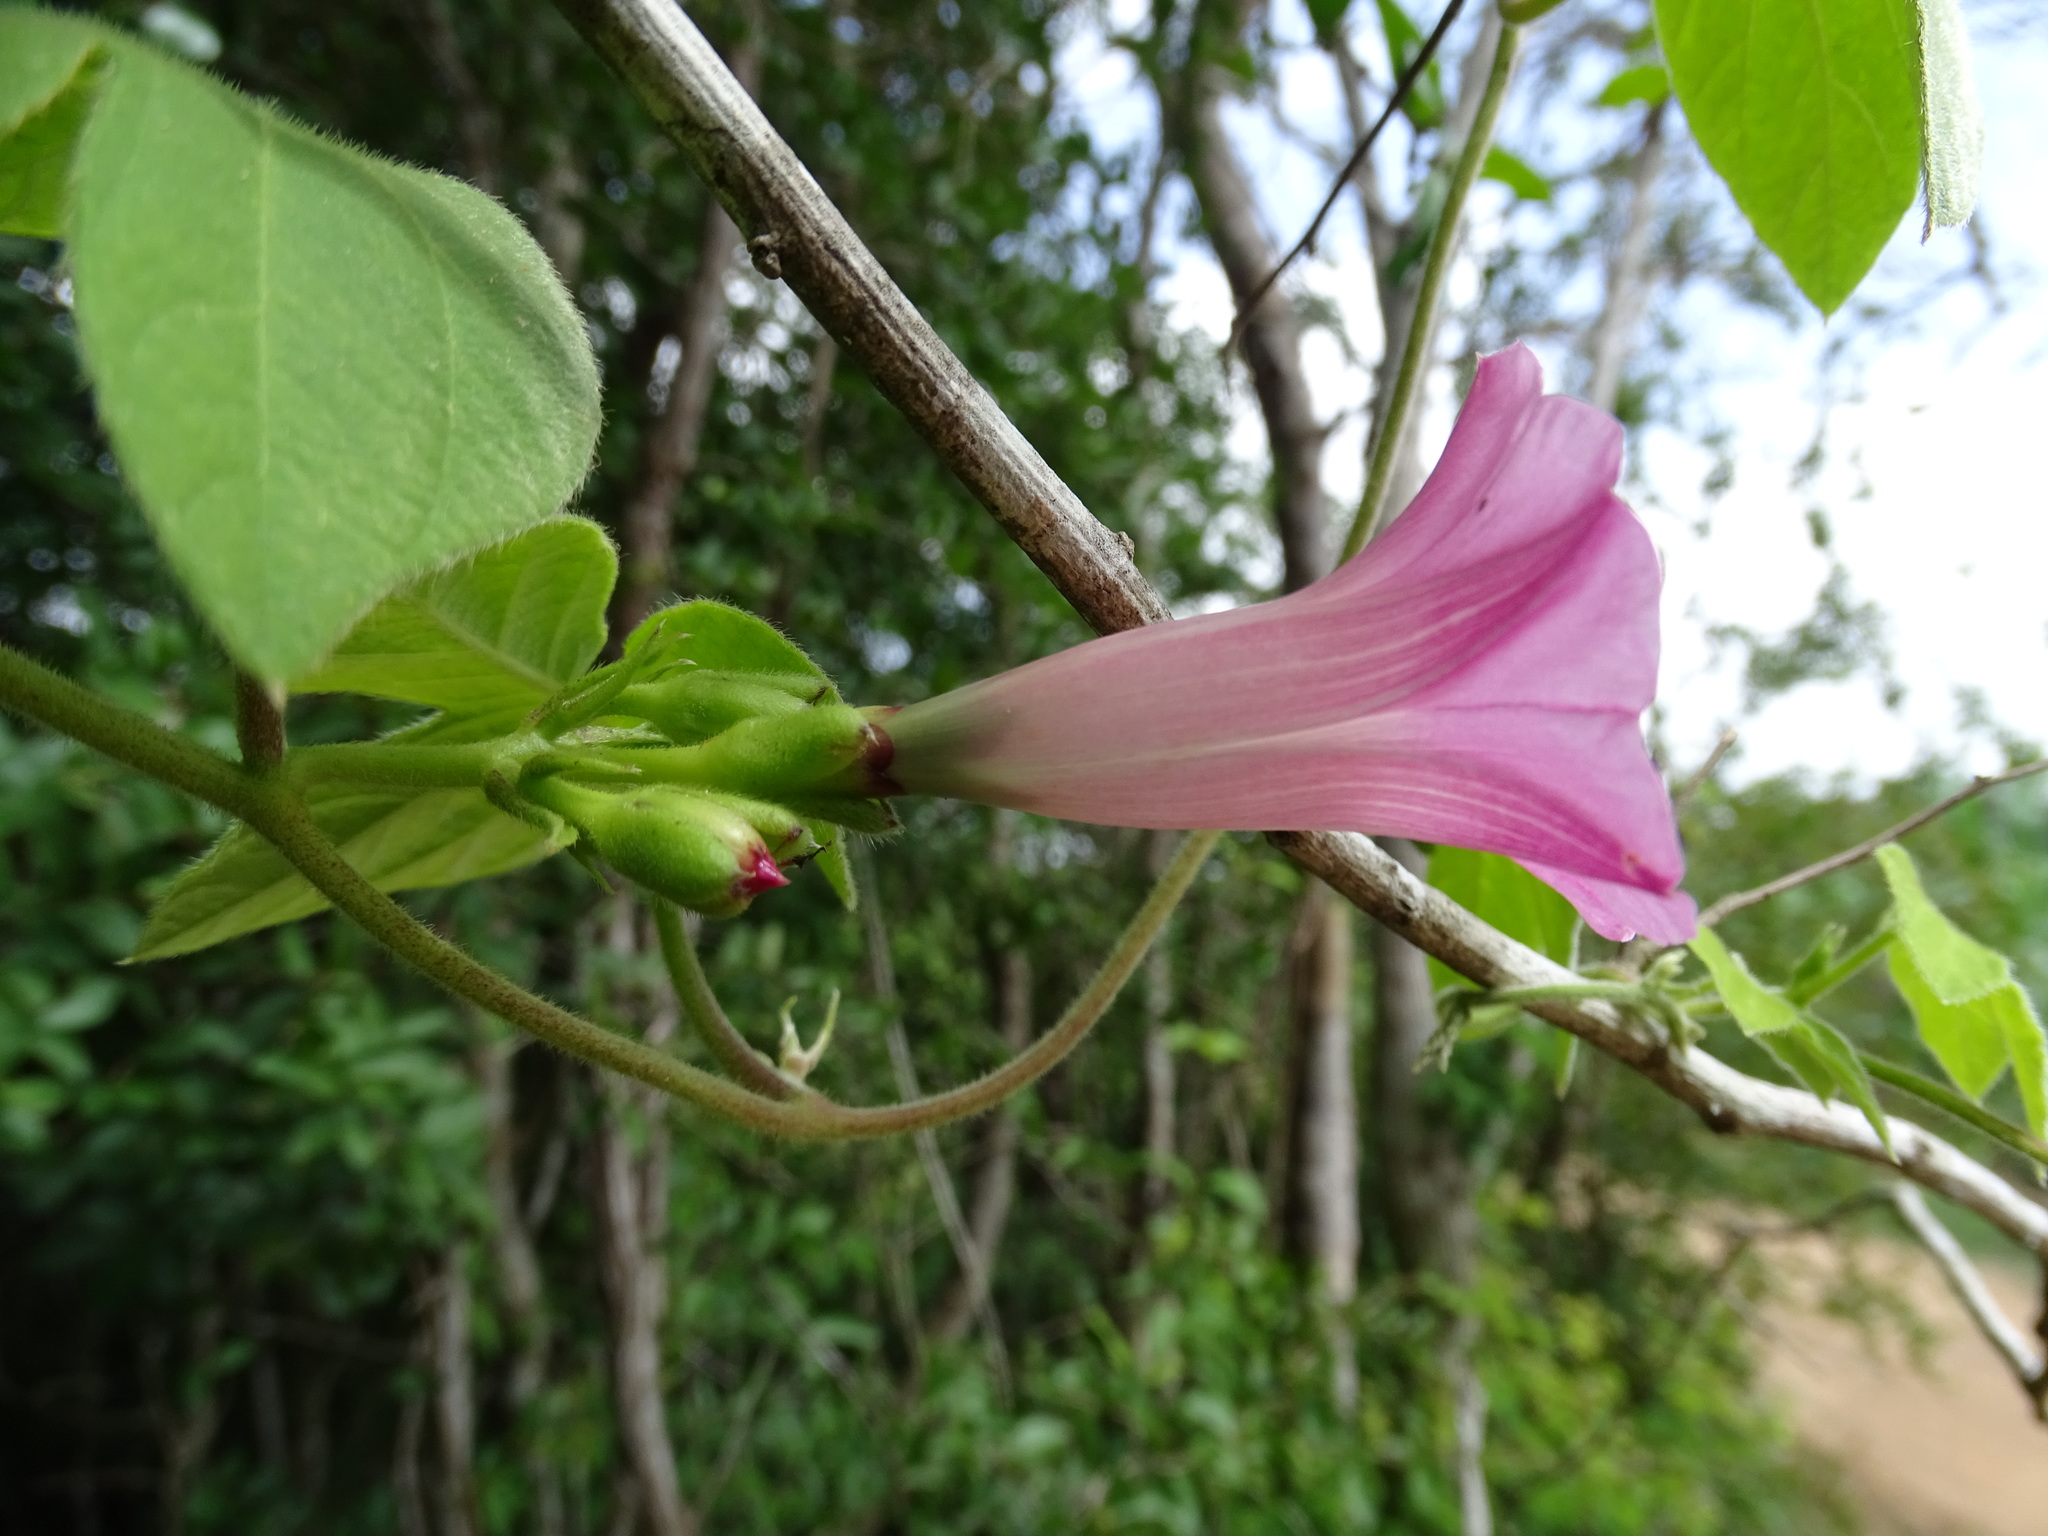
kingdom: Plantae
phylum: Tracheophyta
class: Magnoliopsida
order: Solanales
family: Convolvulaceae
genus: Ipomoea
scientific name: Ipomoea peteri
